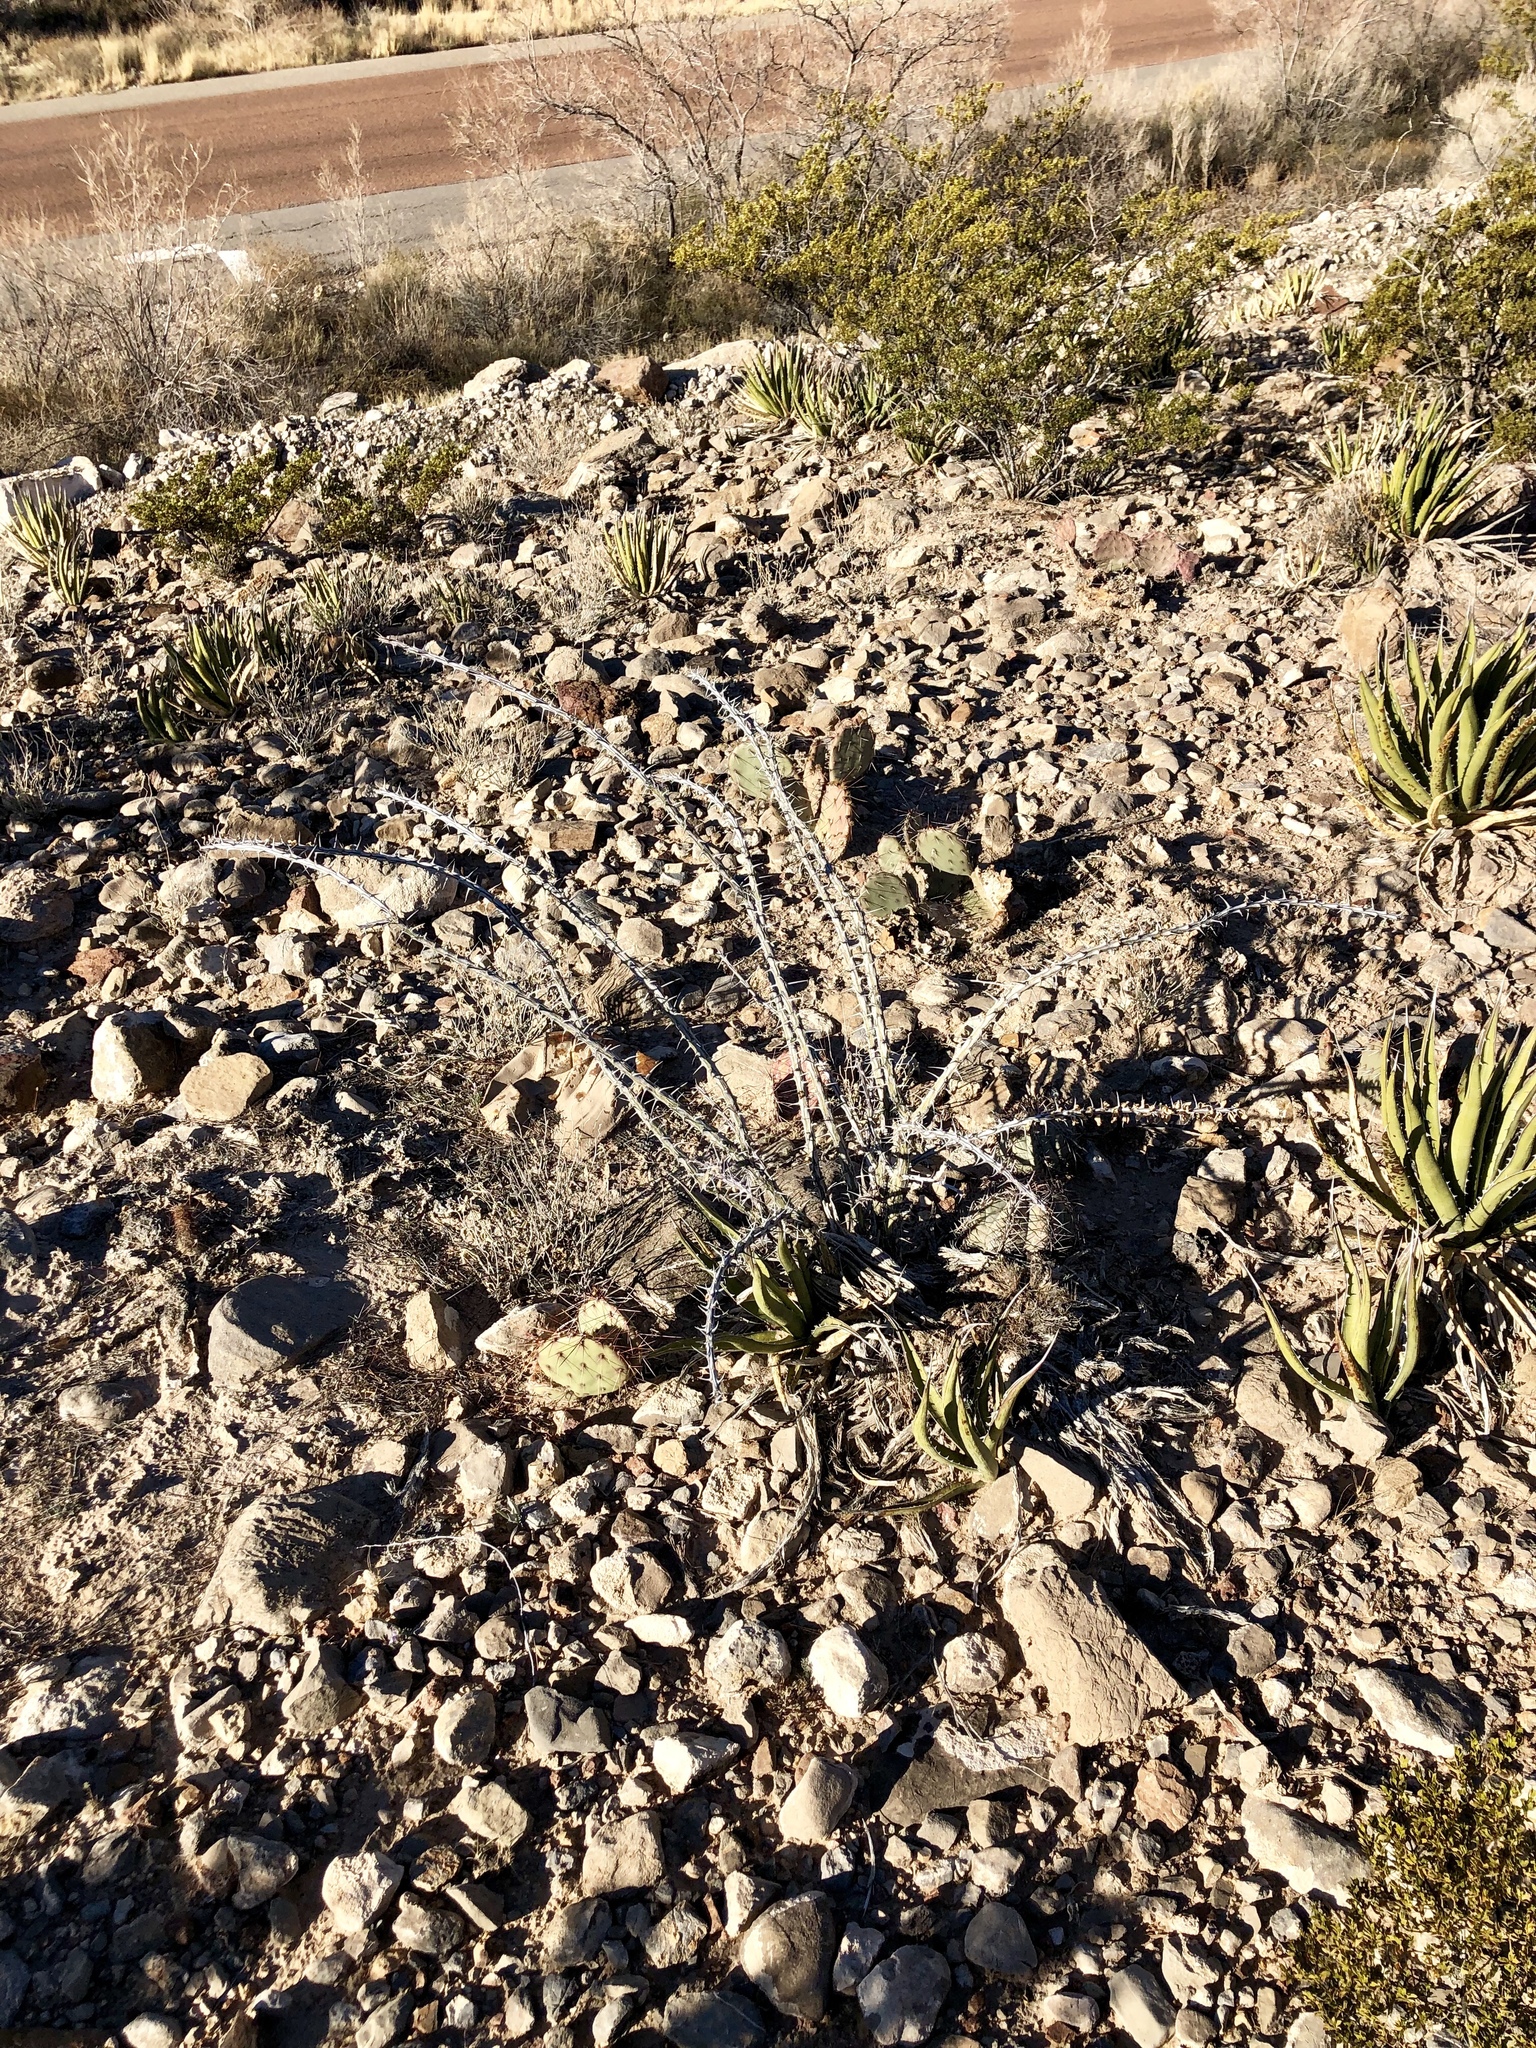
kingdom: Plantae
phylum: Tracheophyta
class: Magnoliopsida
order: Ericales
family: Fouquieriaceae
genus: Fouquieria
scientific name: Fouquieria splendens
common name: Vine-cactus
